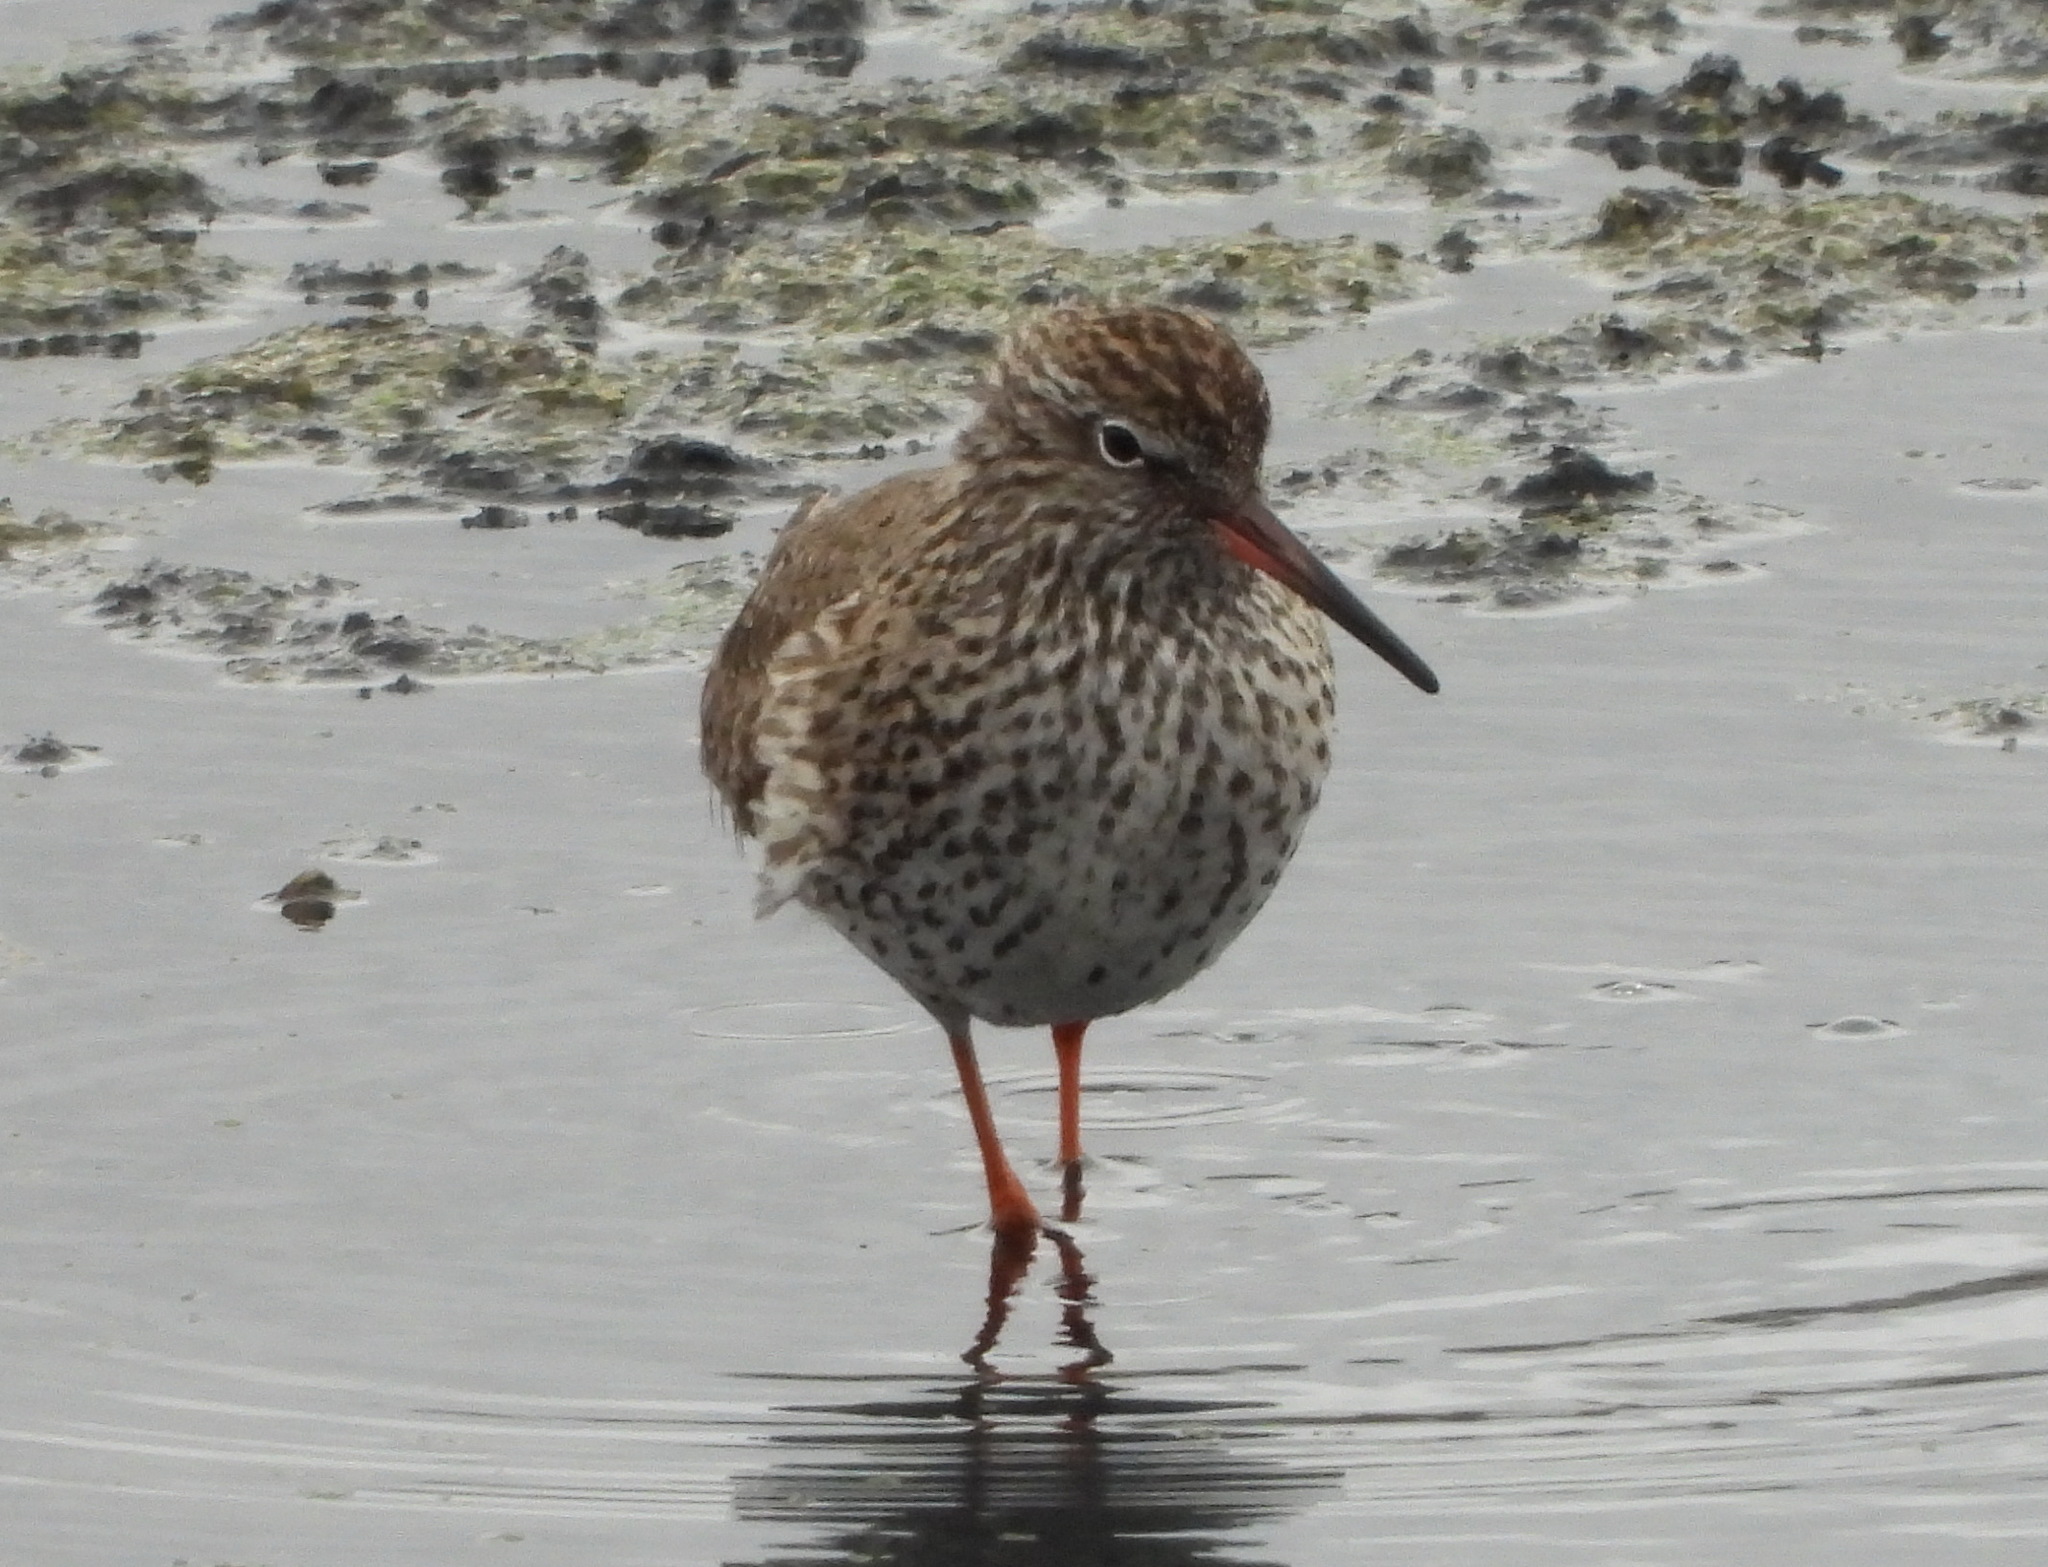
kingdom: Animalia
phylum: Chordata
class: Aves
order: Charadriiformes
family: Scolopacidae
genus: Tringa
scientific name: Tringa totanus
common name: Common redshank
